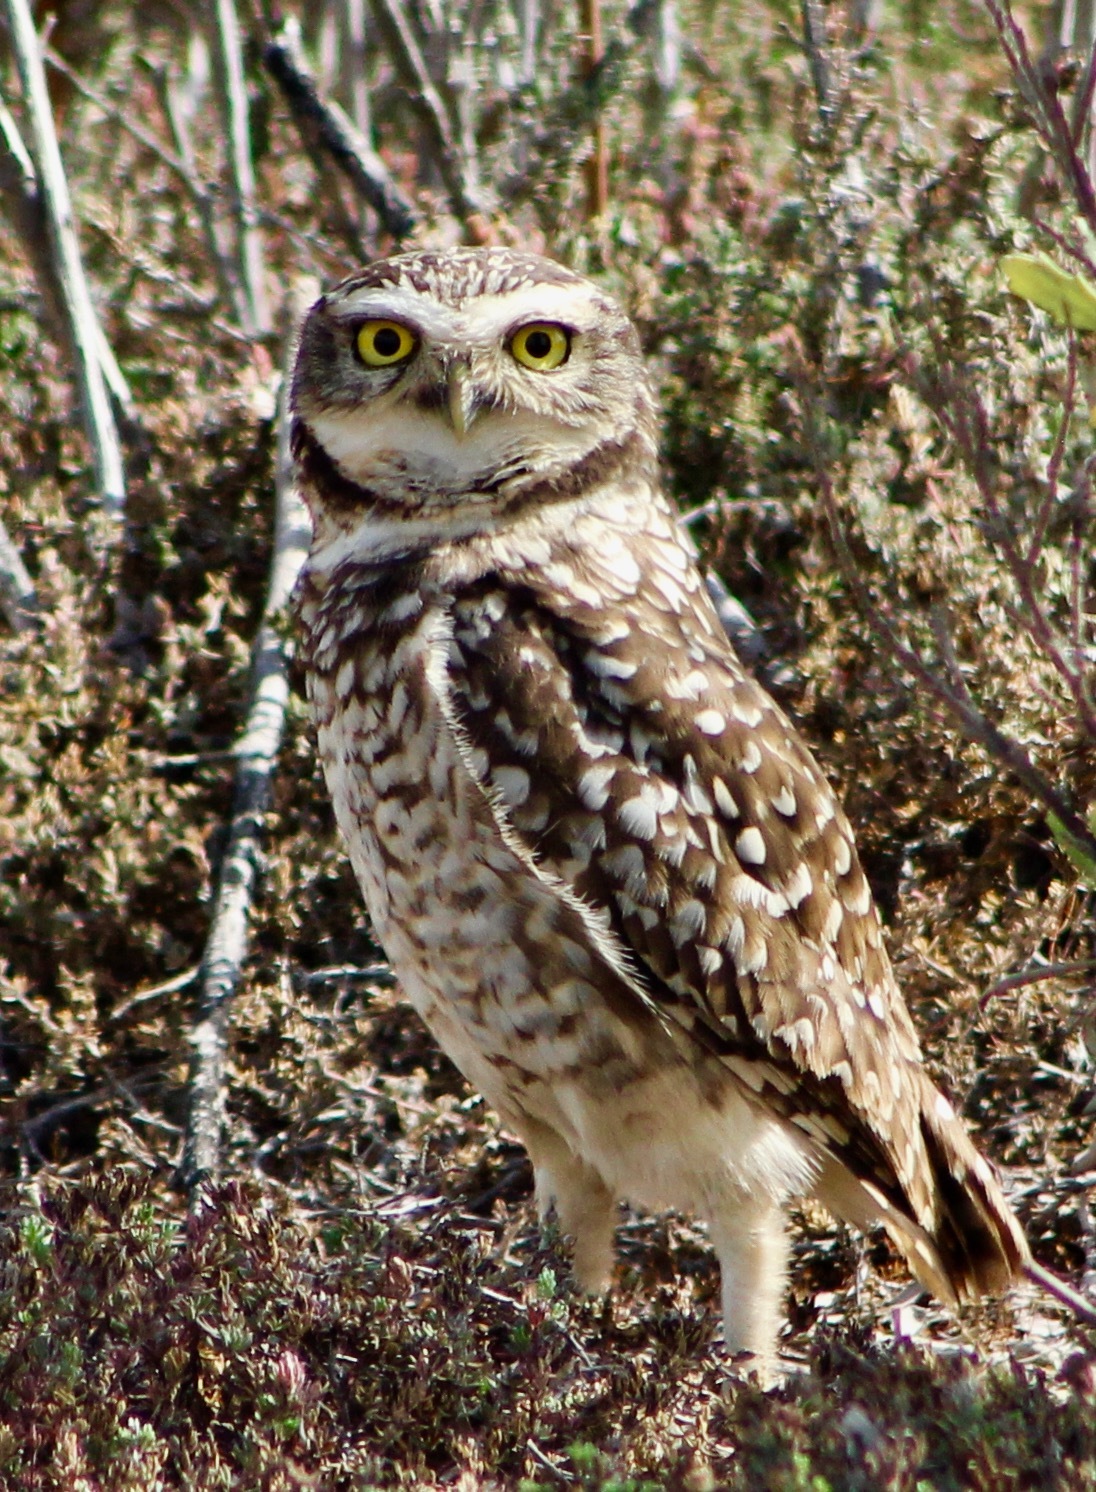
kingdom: Animalia
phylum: Chordata
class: Aves
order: Strigiformes
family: Strigidae
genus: Athene
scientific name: Athene cunicularia
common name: Burrowing owl
